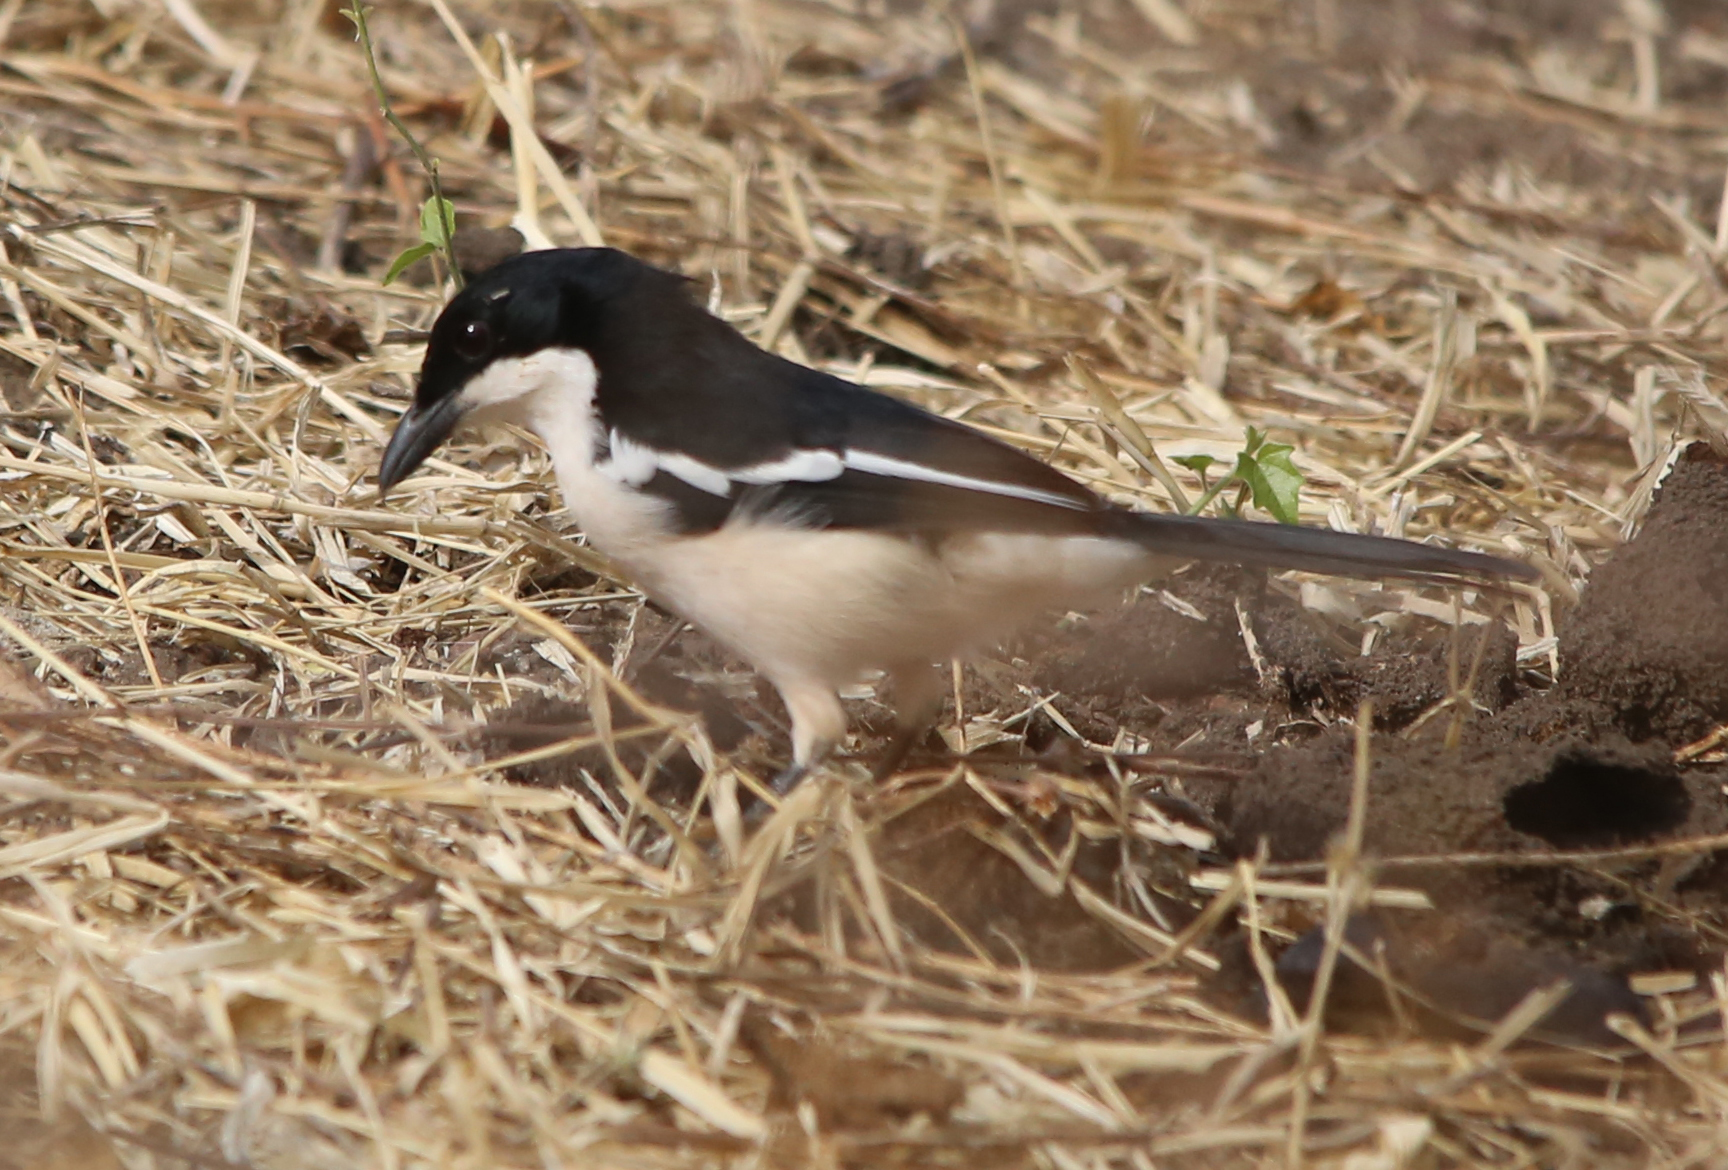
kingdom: Animalia
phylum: Chordata
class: Aves
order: Passeriformes
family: Malaconotidae
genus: Laniarius
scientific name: Laniarius major
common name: Tropical boubou
